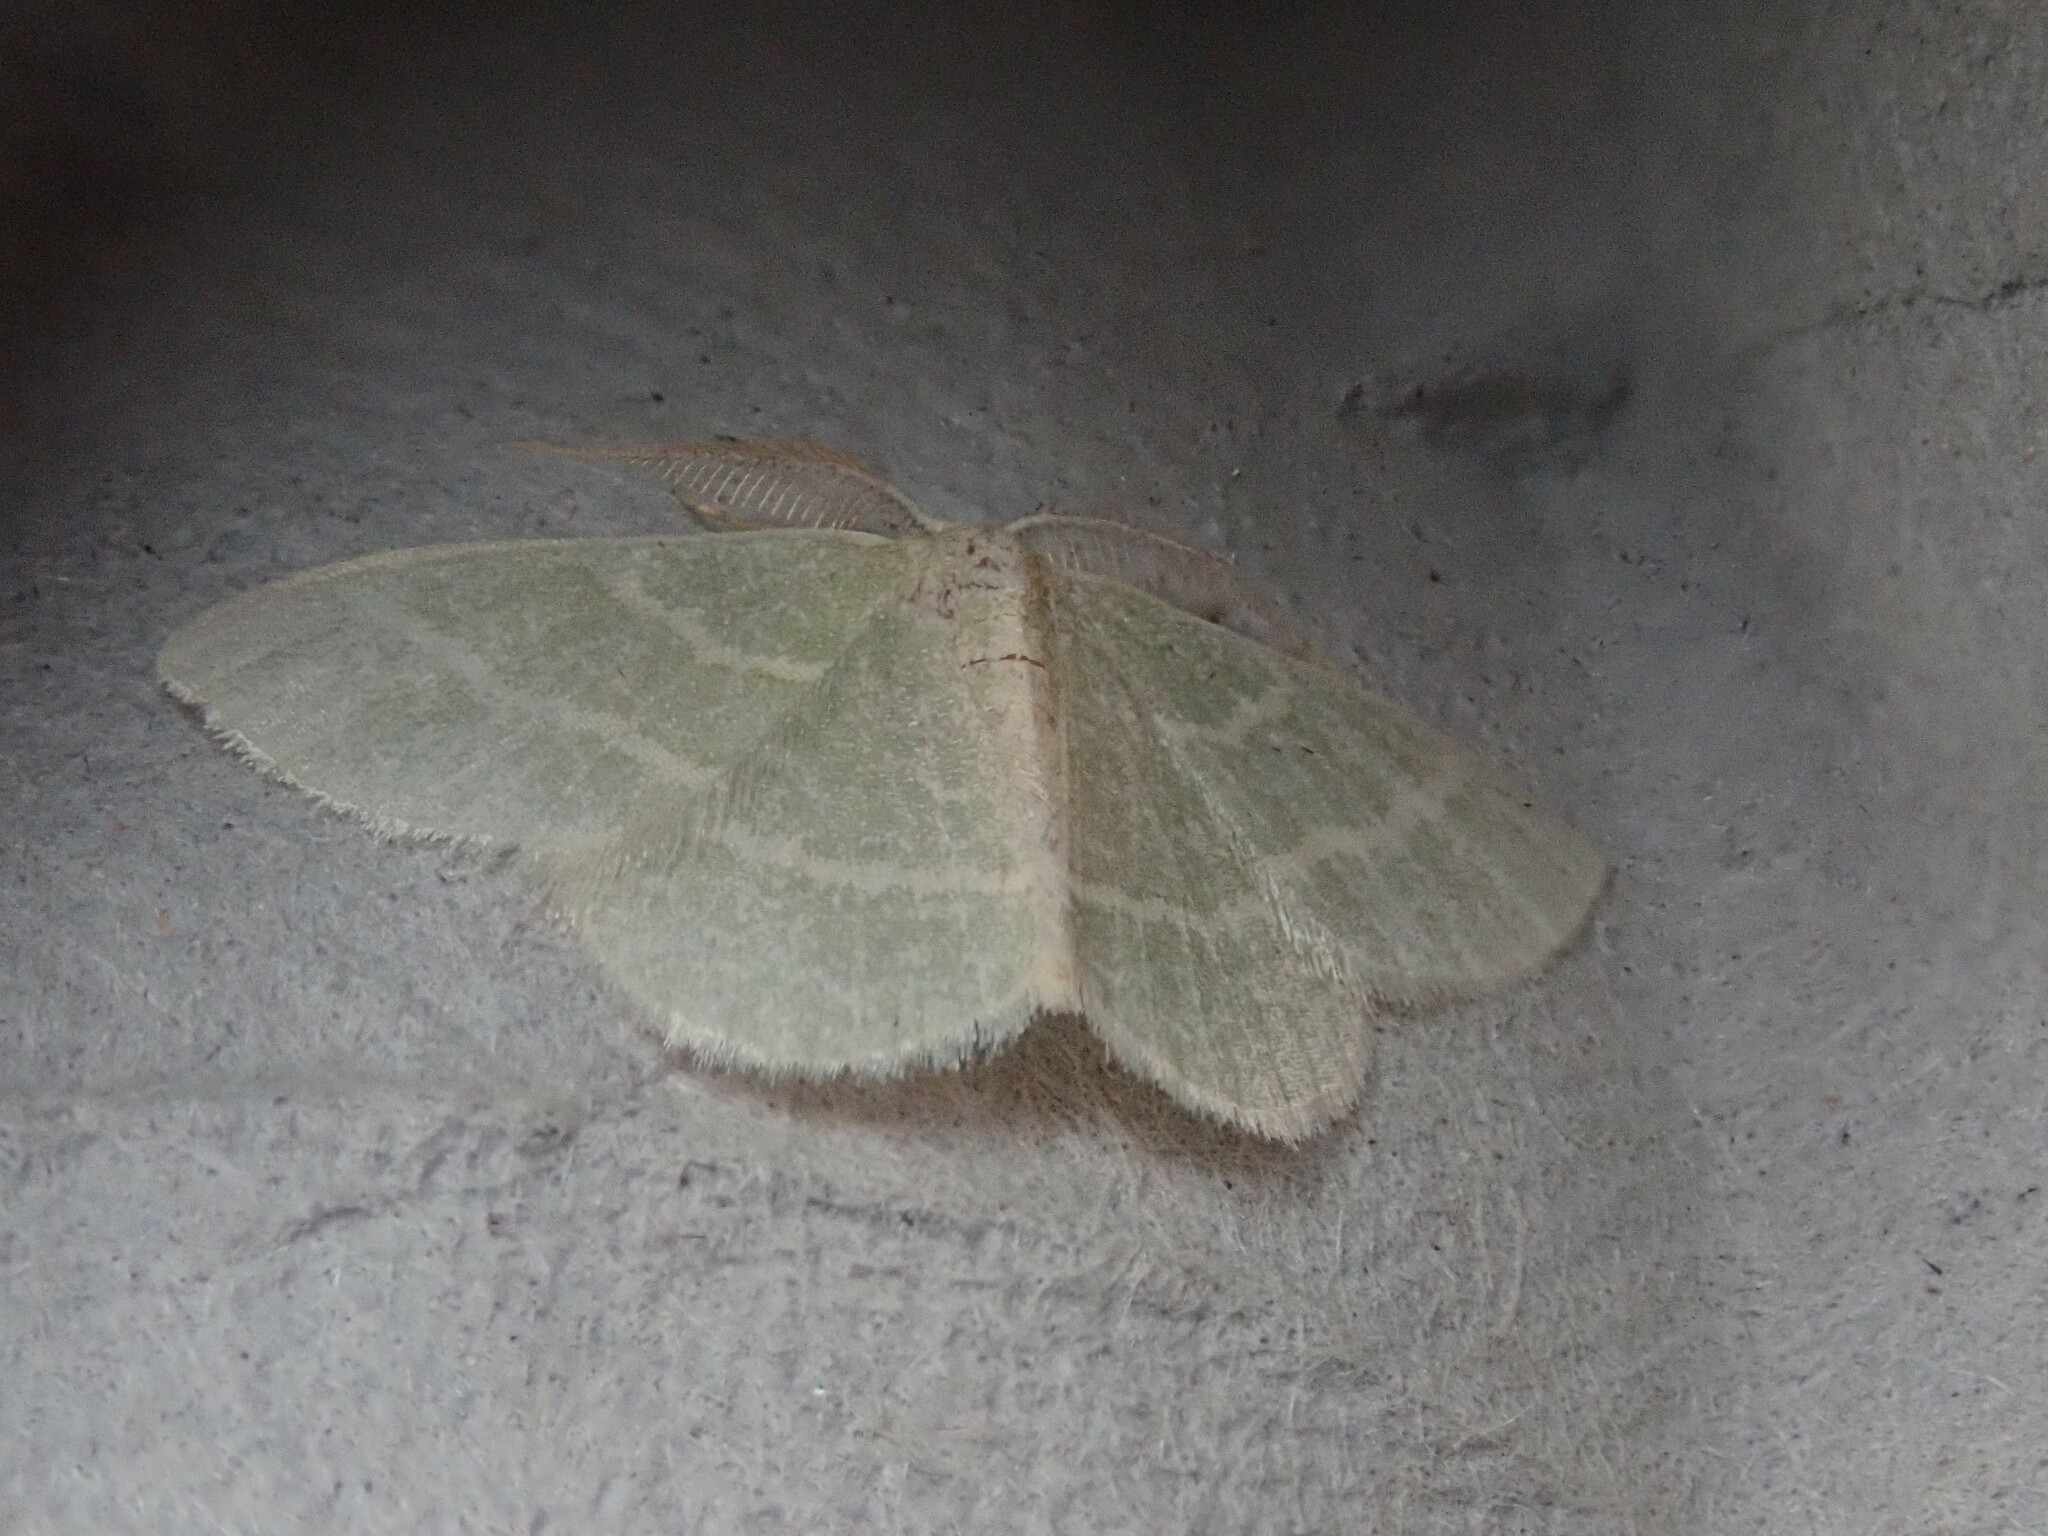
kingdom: Animalia
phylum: Arthropoda
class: Insecta
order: Lepidoptera
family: Geometridae
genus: Chlorochlamys
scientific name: Chlorochlamys chloroleucaria
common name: Blackberry looper
